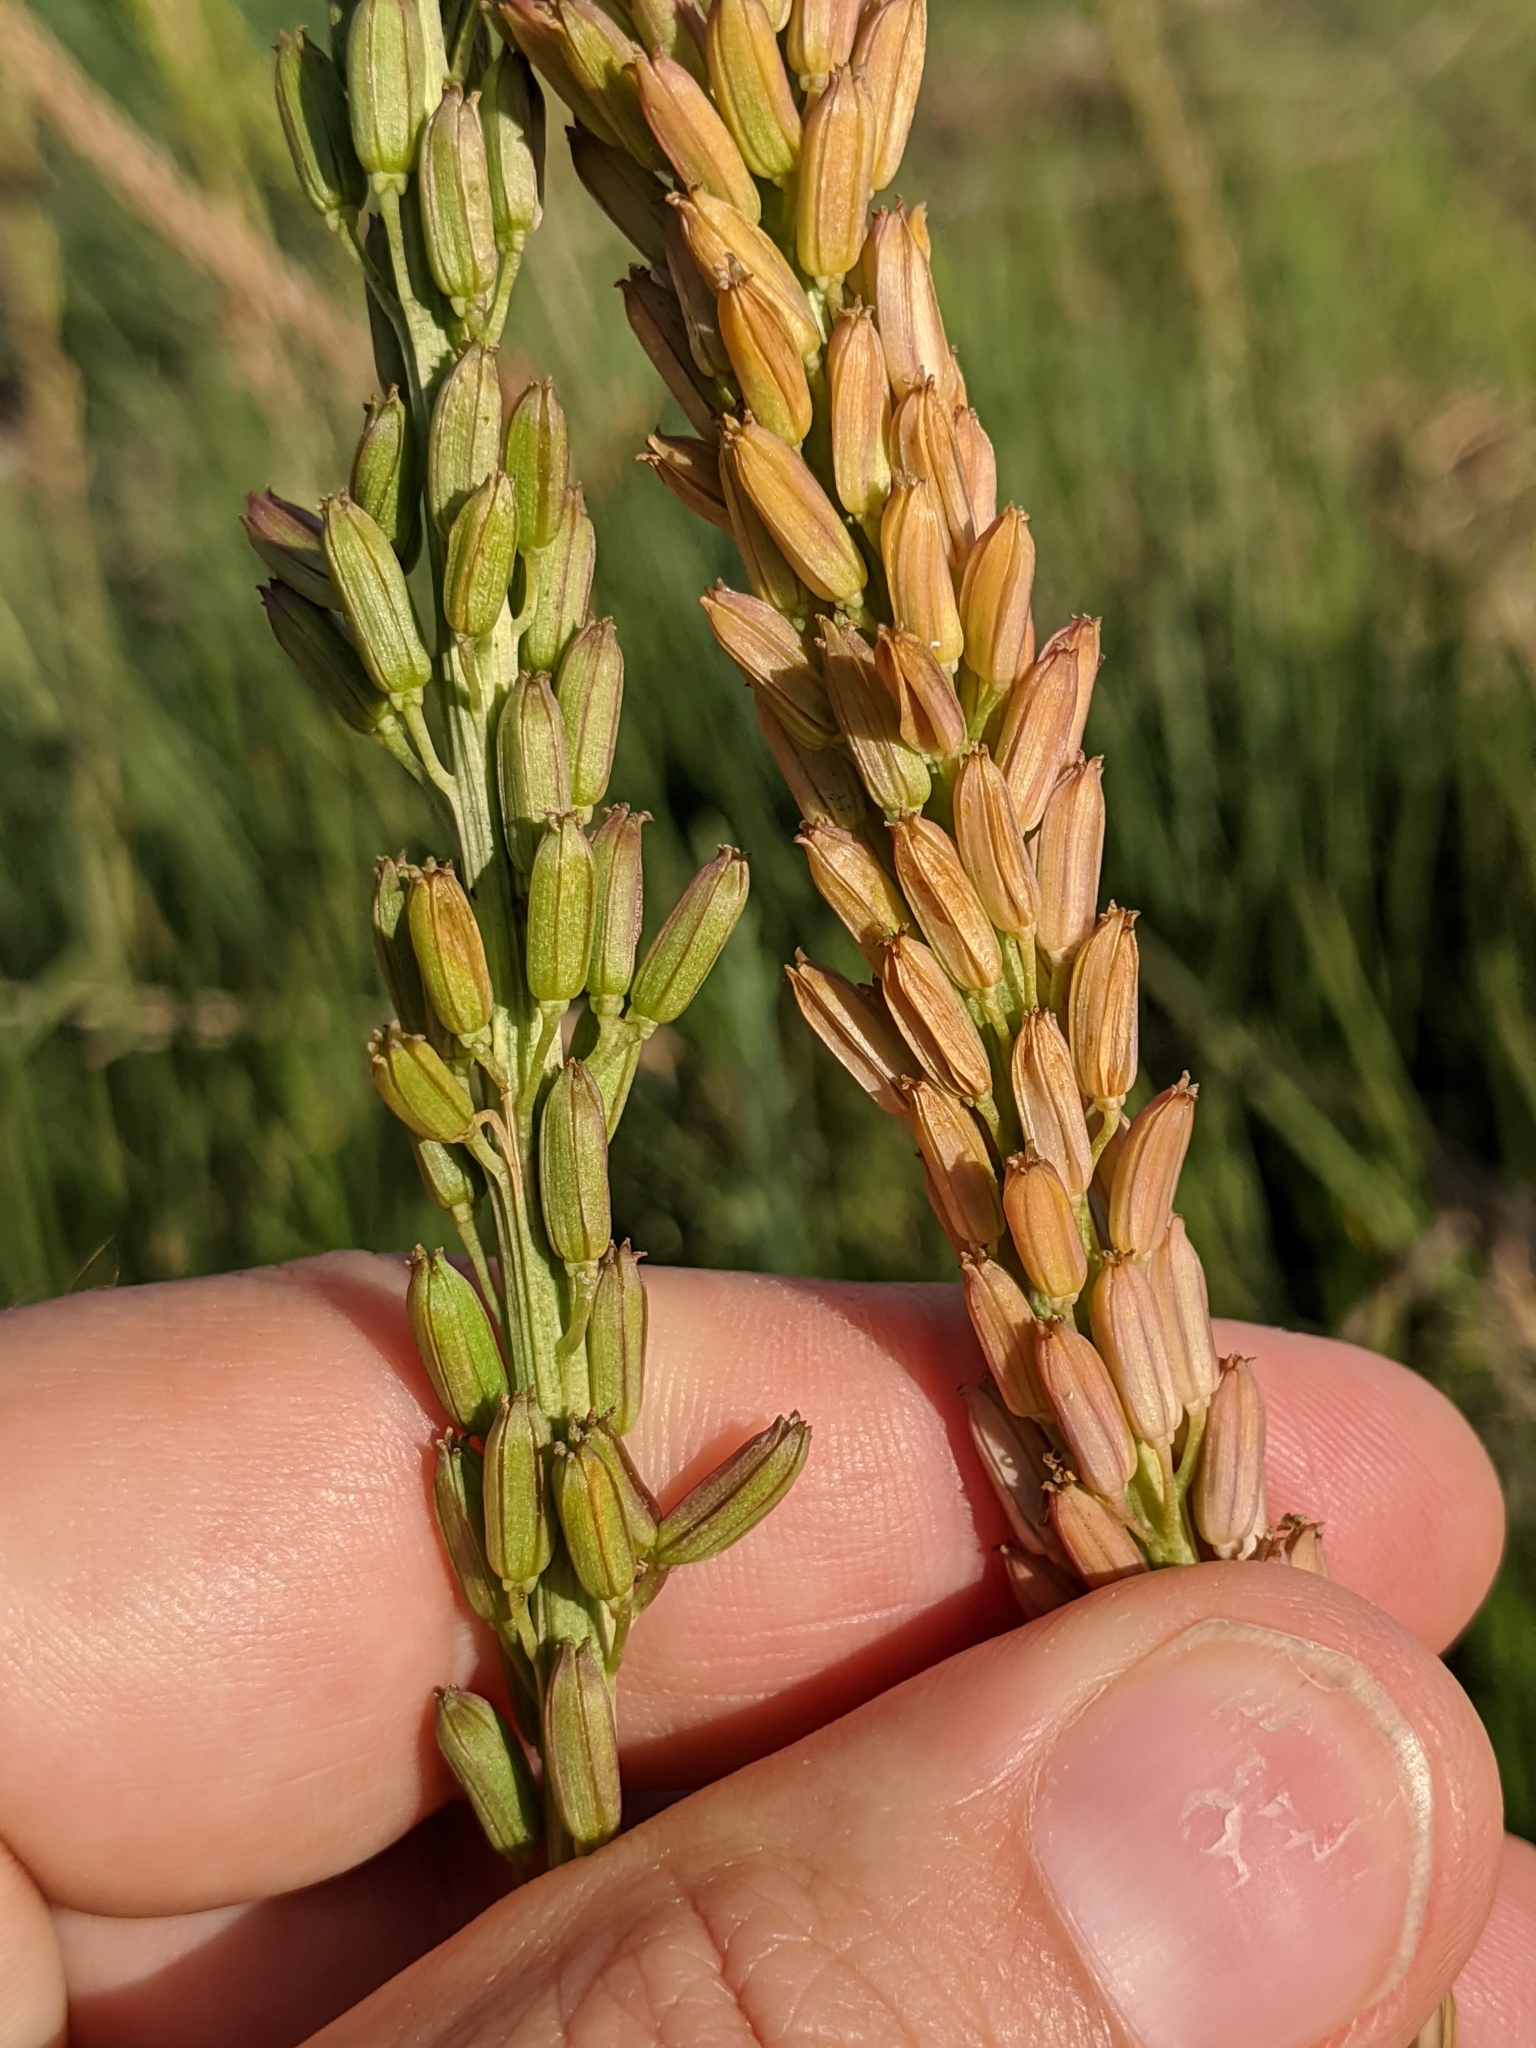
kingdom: Plantae
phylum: Tracheophyta
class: Liliopsida
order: Alismatales
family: Juncaginaceae
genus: Triglochin
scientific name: Triglochin maritima
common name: Sea arrowgrass
